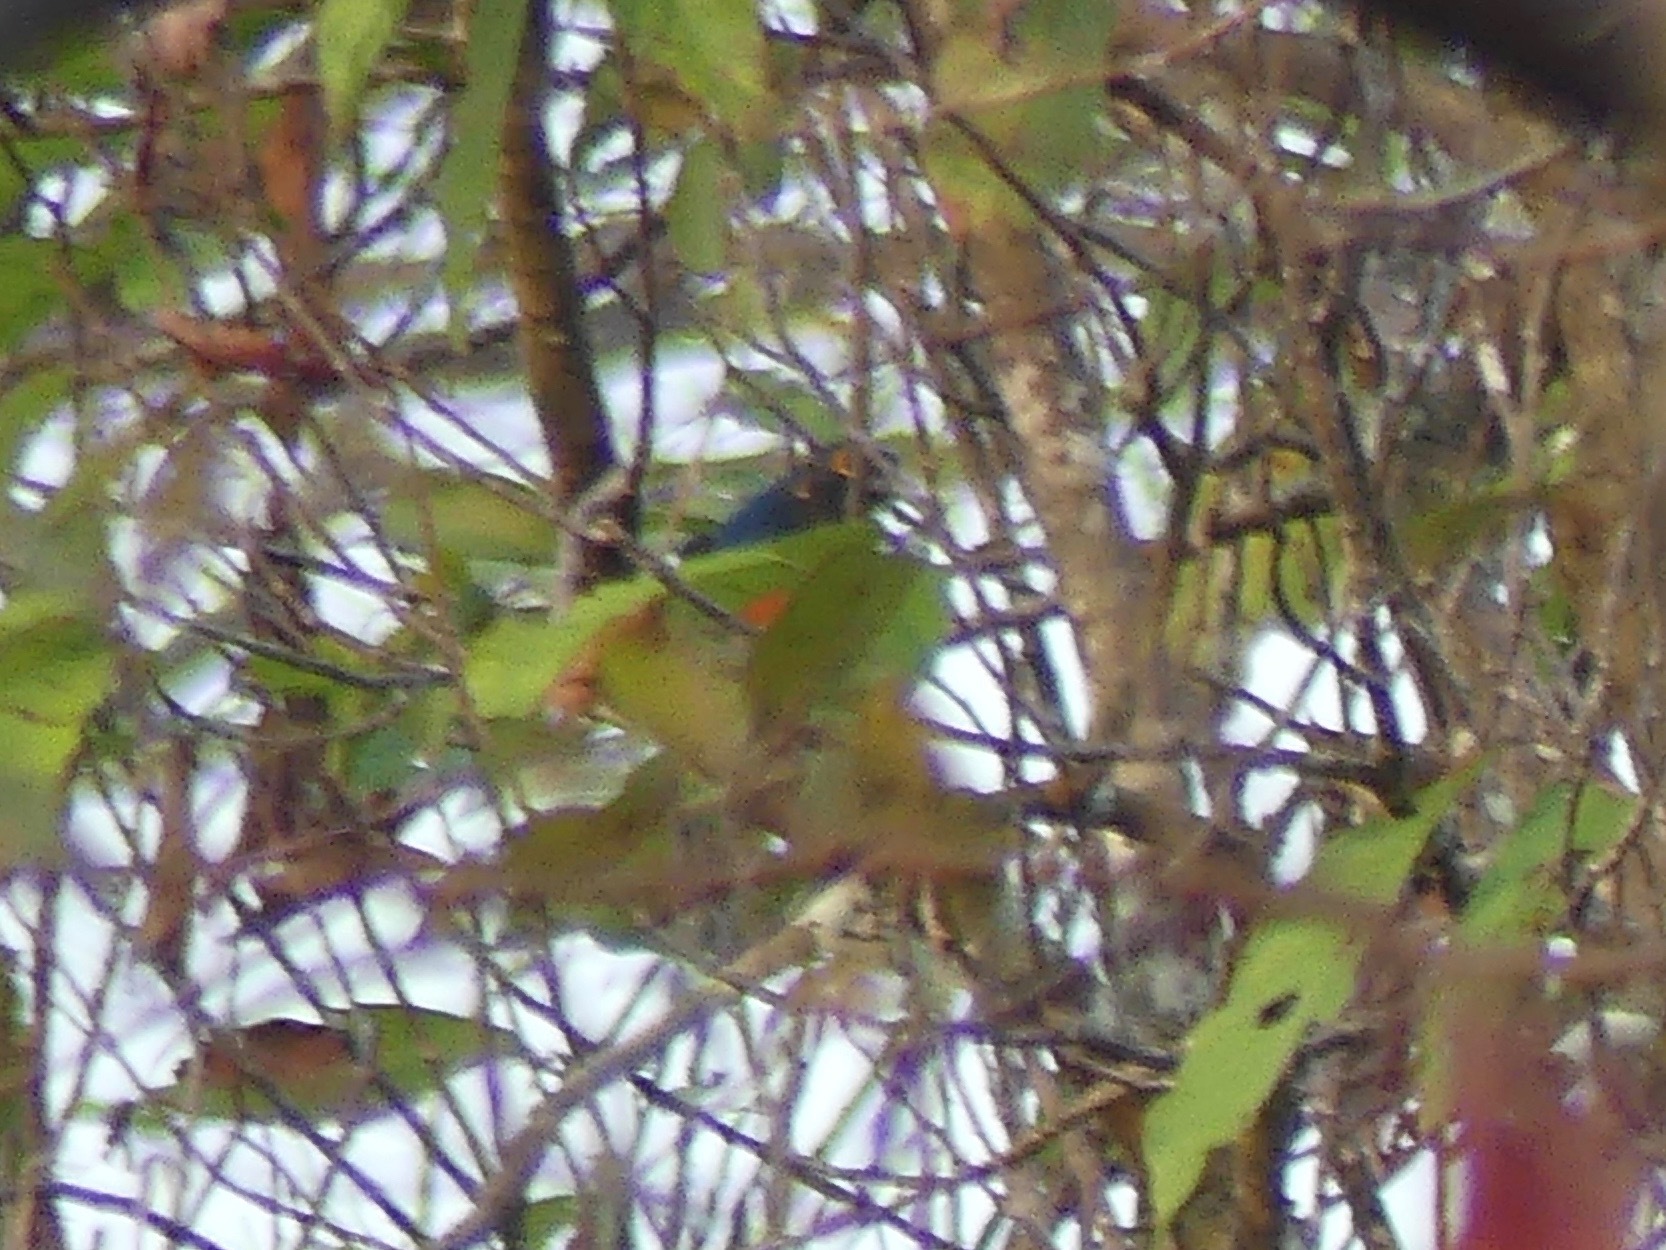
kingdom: Animalia
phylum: Chordata
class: Aves
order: Trogoniformes
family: Trogonidae
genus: Trogon
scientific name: Trogon curucui
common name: Blue-crowned trogon
